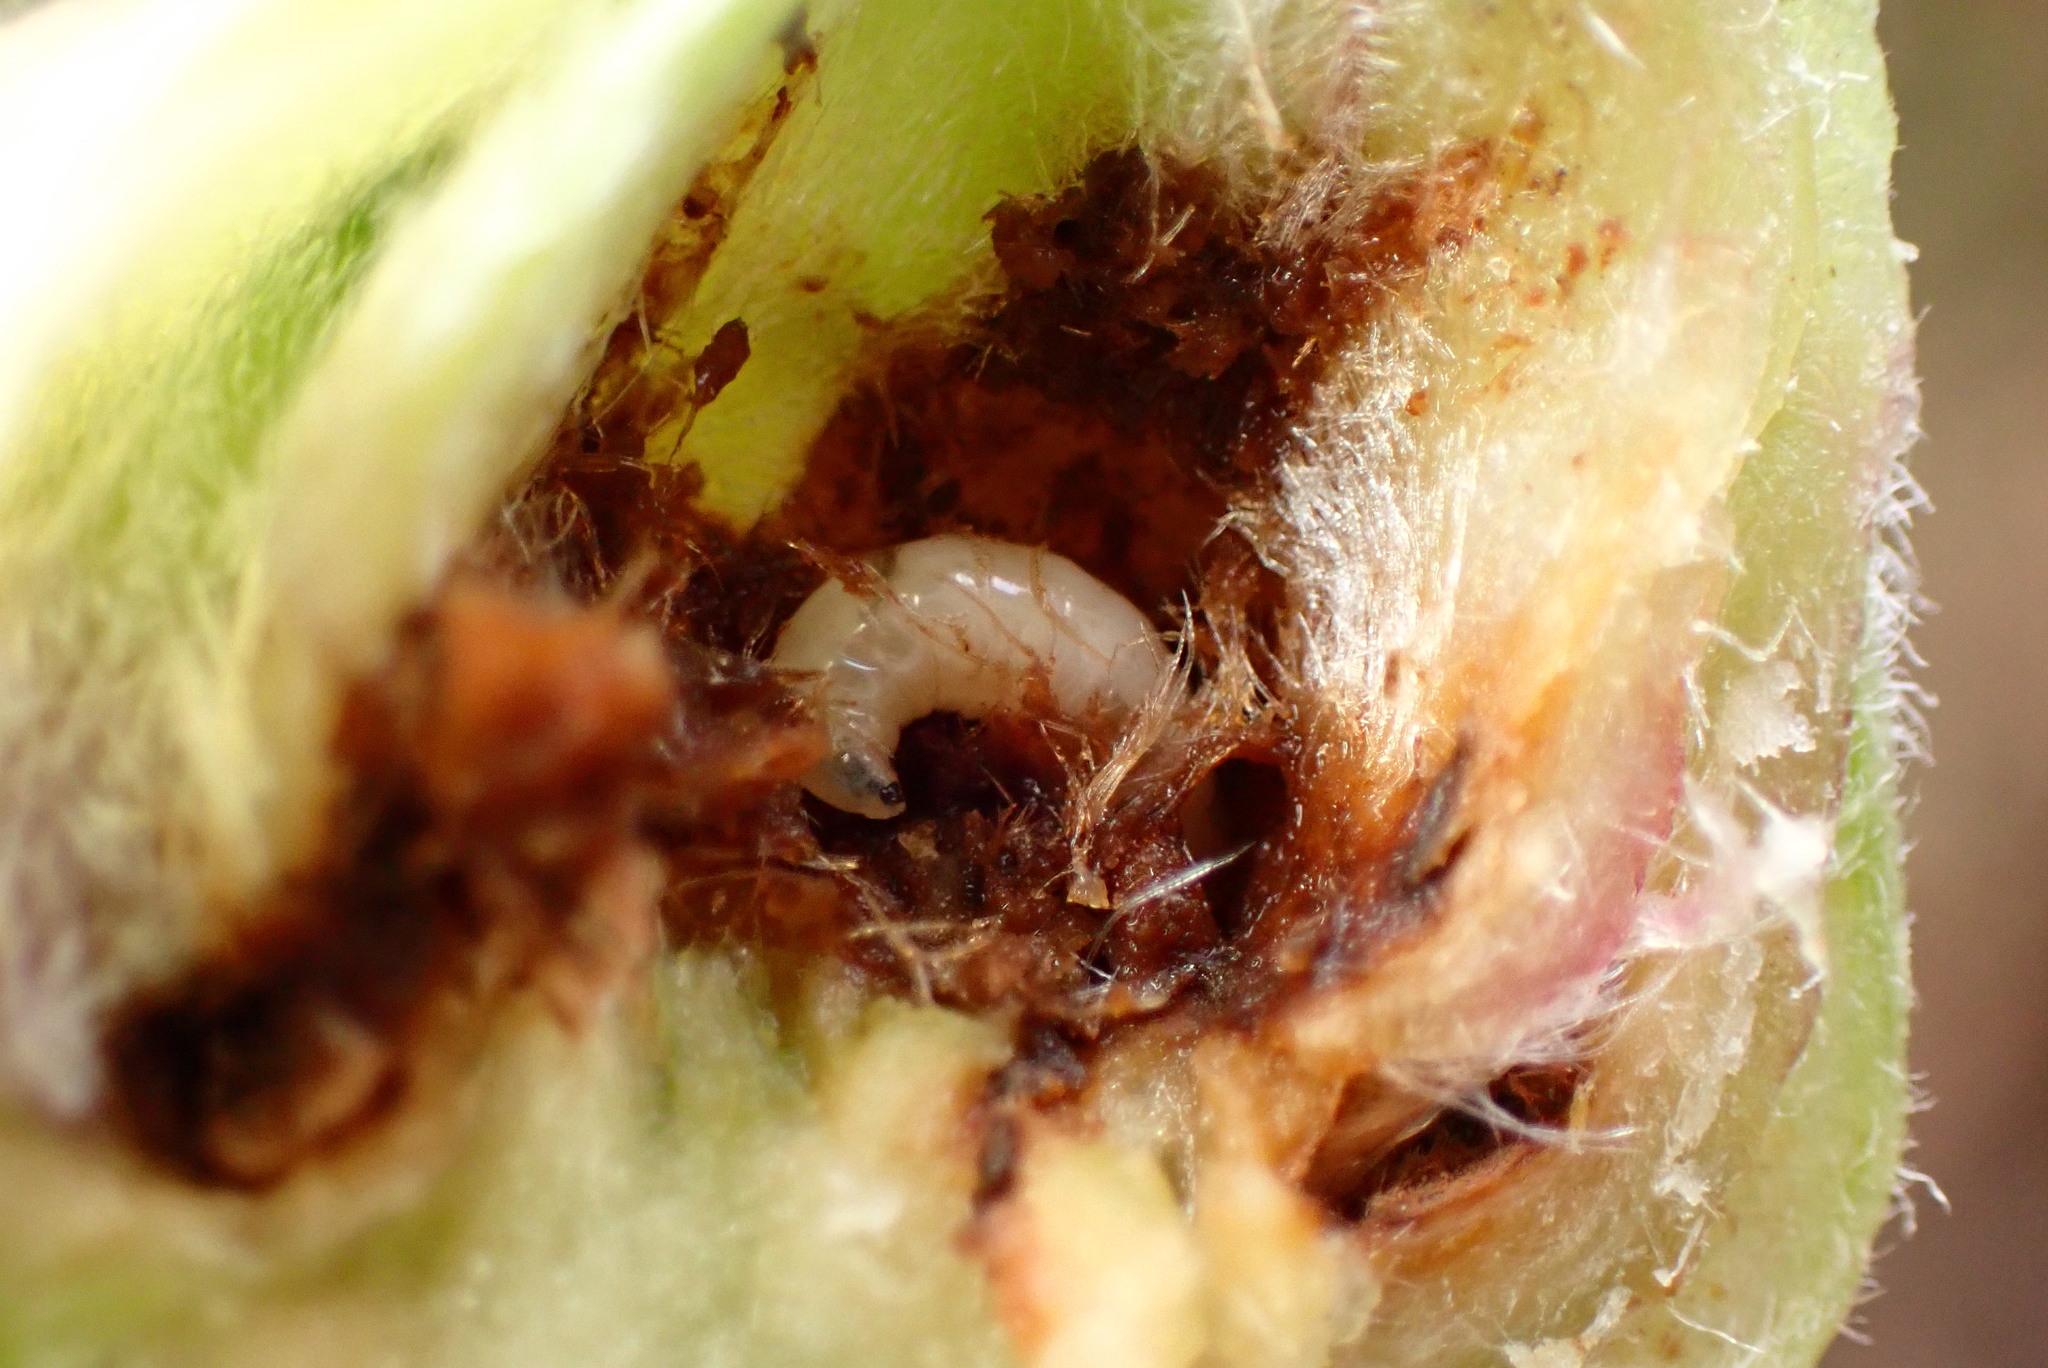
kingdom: Animalia
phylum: Arthropoda
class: Insecta
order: Diptera
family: Cecidomyiidae
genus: Dasineura
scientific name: Dasineura lupini
